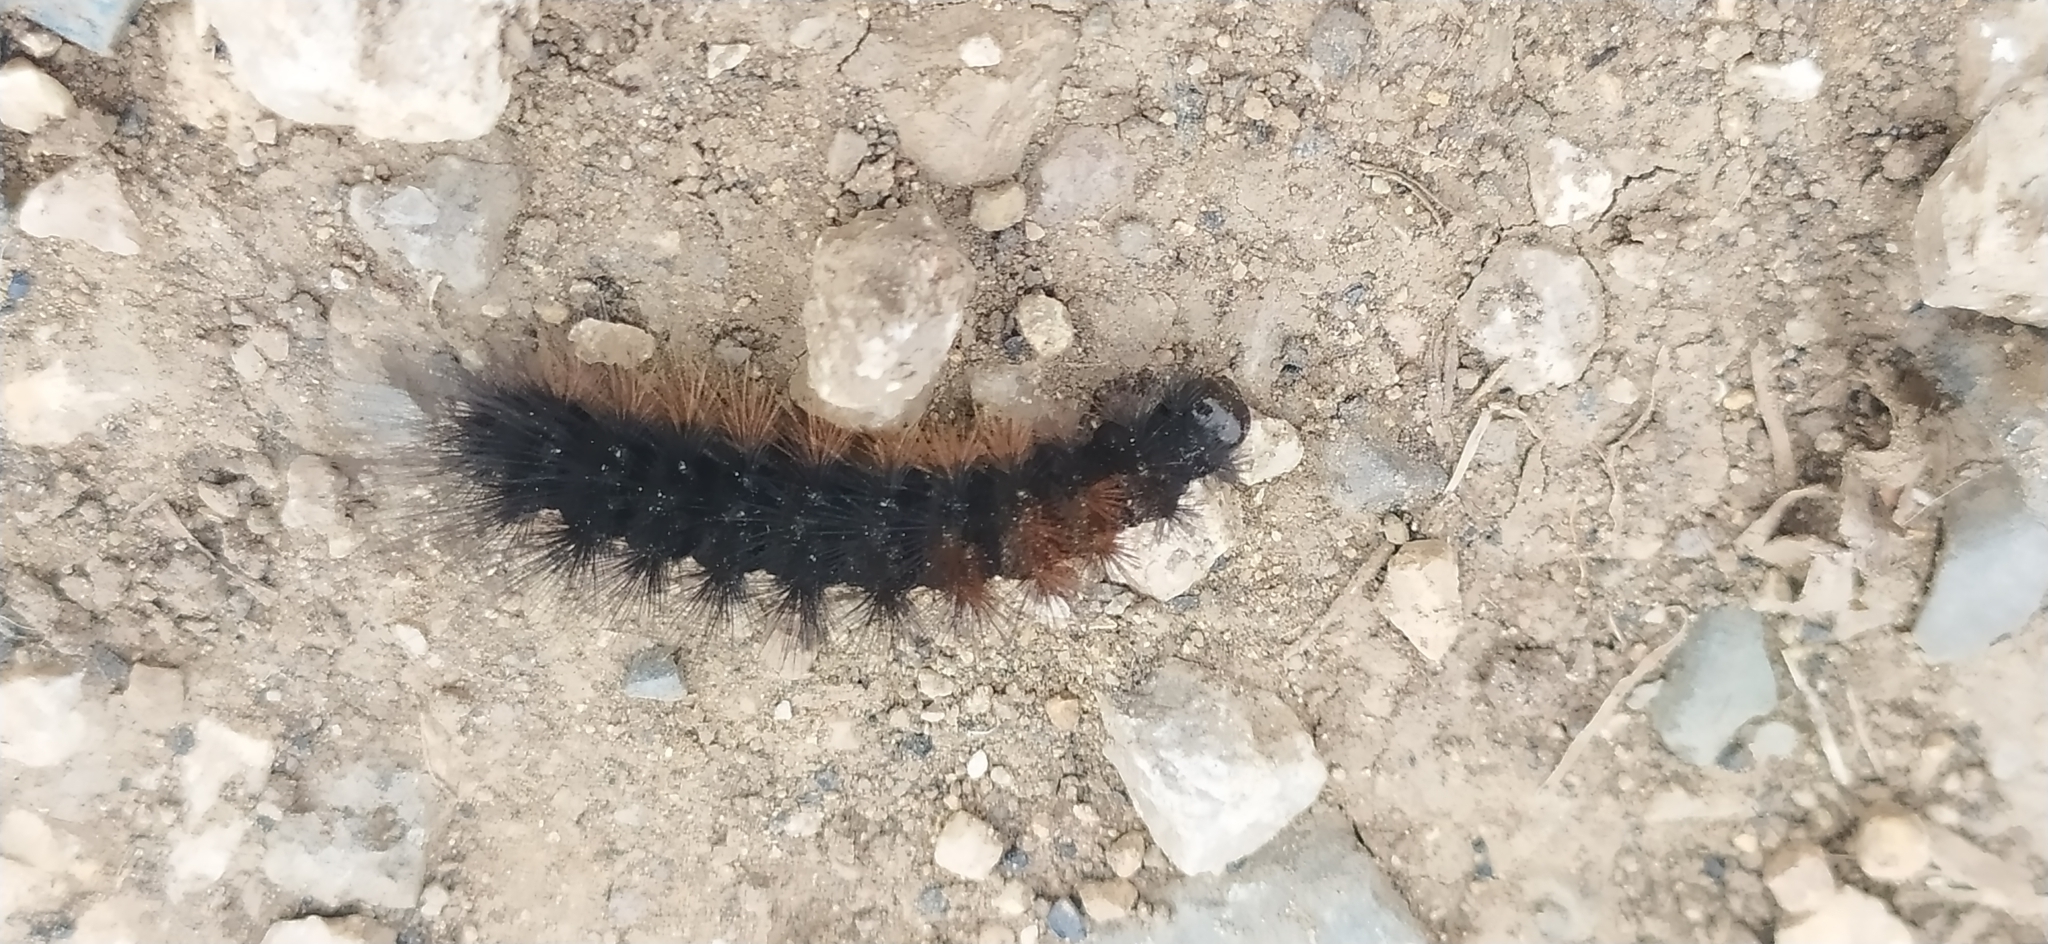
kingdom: Animalia
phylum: Arthropoda
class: Insecta
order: Lepidoptera
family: Erebidae
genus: Parasemia
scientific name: Parasemia plantaginis
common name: Wood tiger
